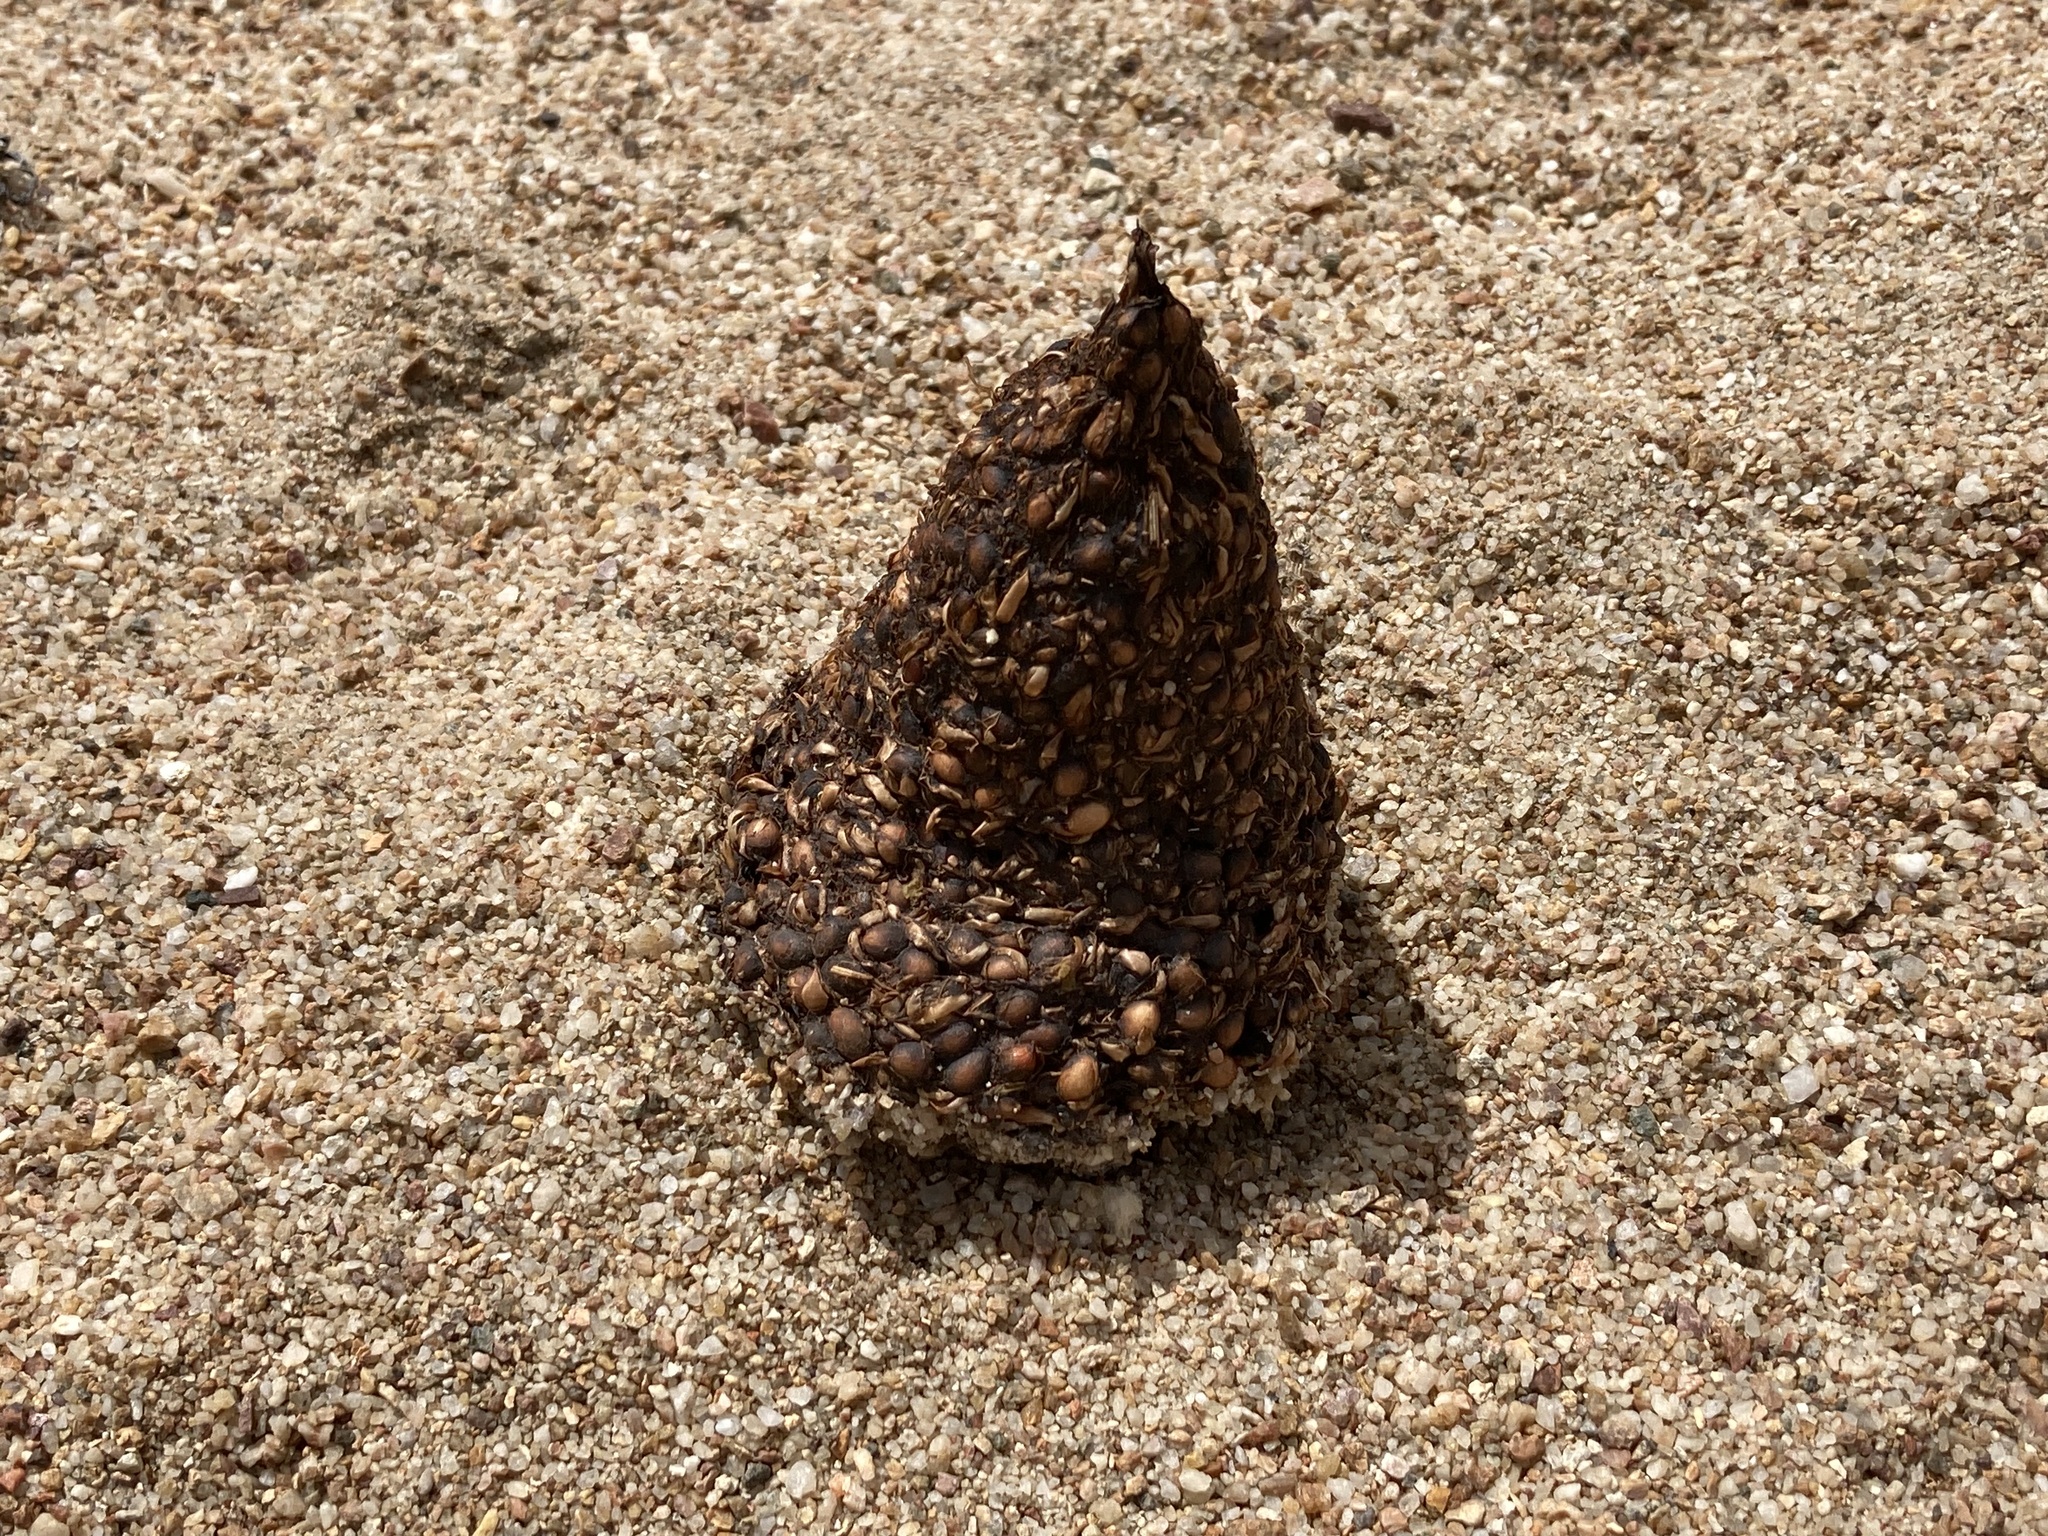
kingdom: Animalia
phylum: Chordata
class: Aves
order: Casuariiformes
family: Dromaiidae
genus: Dromaius
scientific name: Dromaius novaehollandiae
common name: Emu
